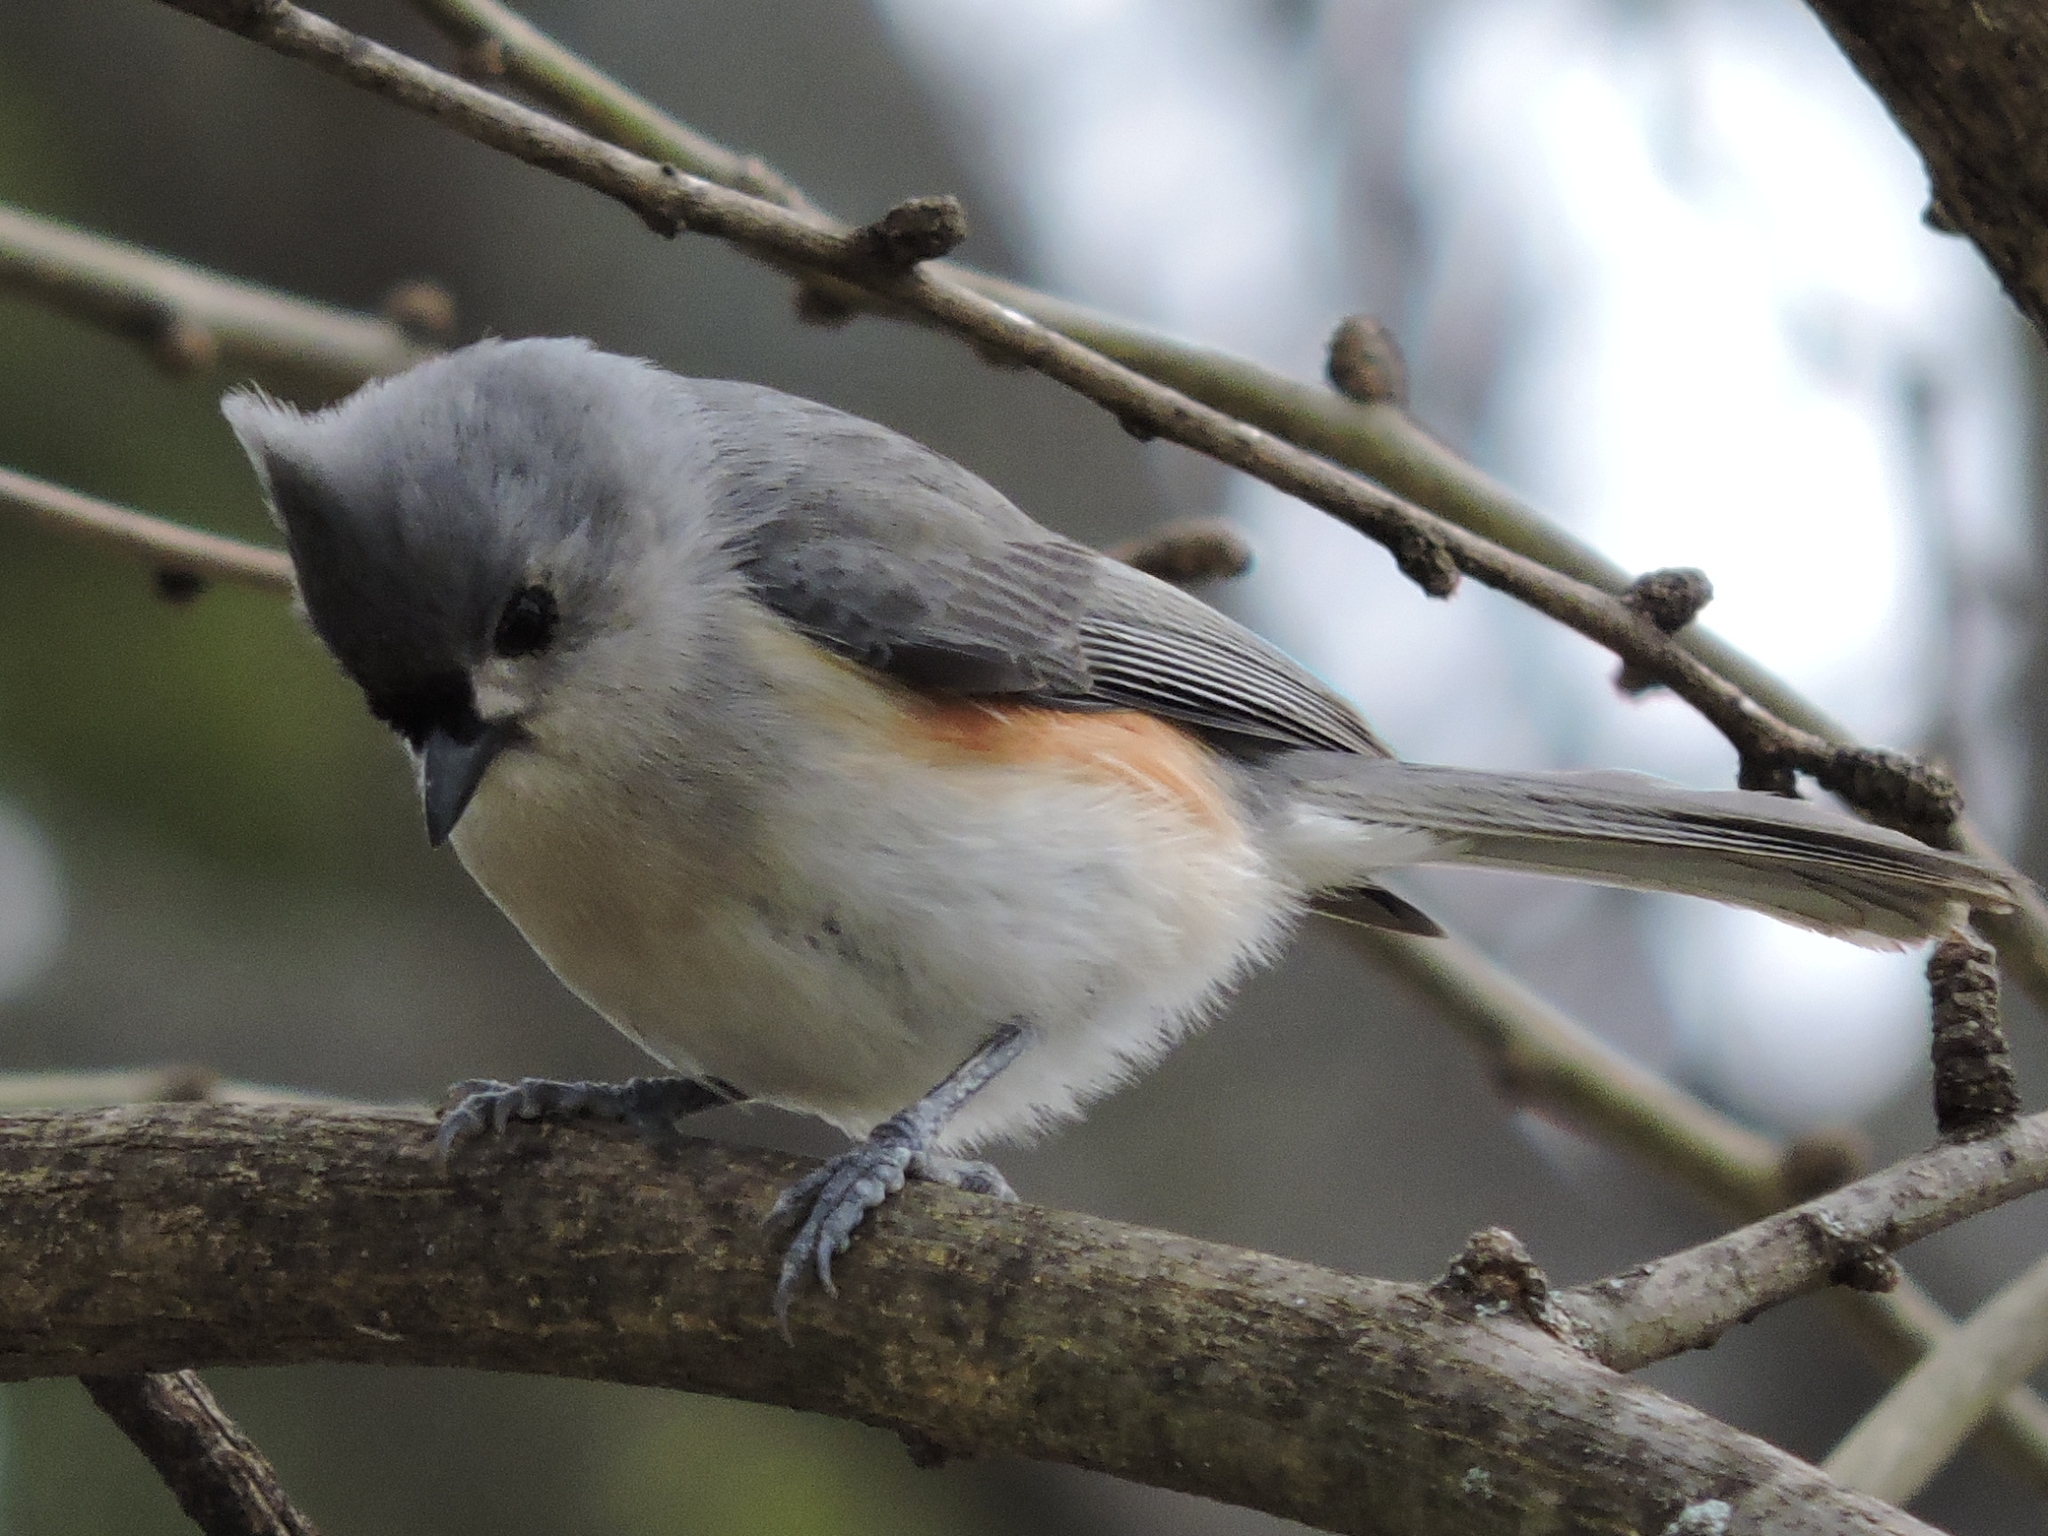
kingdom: Animalia
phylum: Chordata
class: Aves
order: Passeriformes
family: Paridae
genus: Baeolophus
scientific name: Baeolophus bicolor
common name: Tufted titmouse
